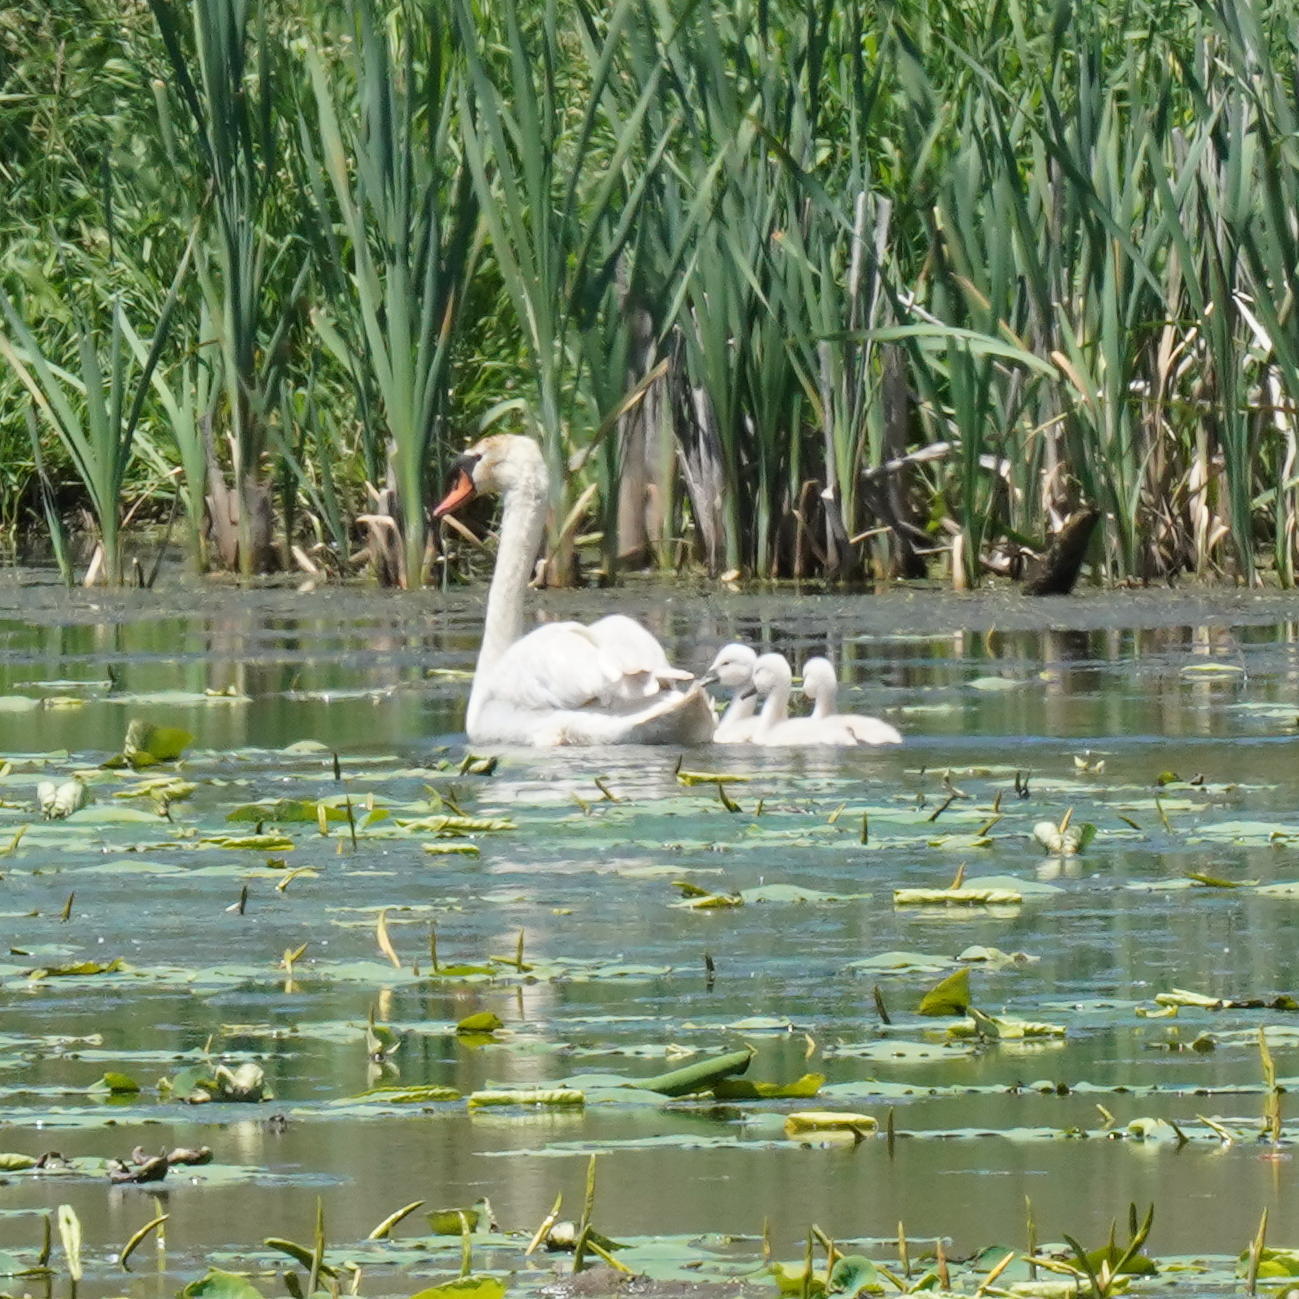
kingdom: Animalia
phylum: Chordata
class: Aves
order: Anseriformes
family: Anatidae
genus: Cygnus
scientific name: Cygnus olor
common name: Mute swan
